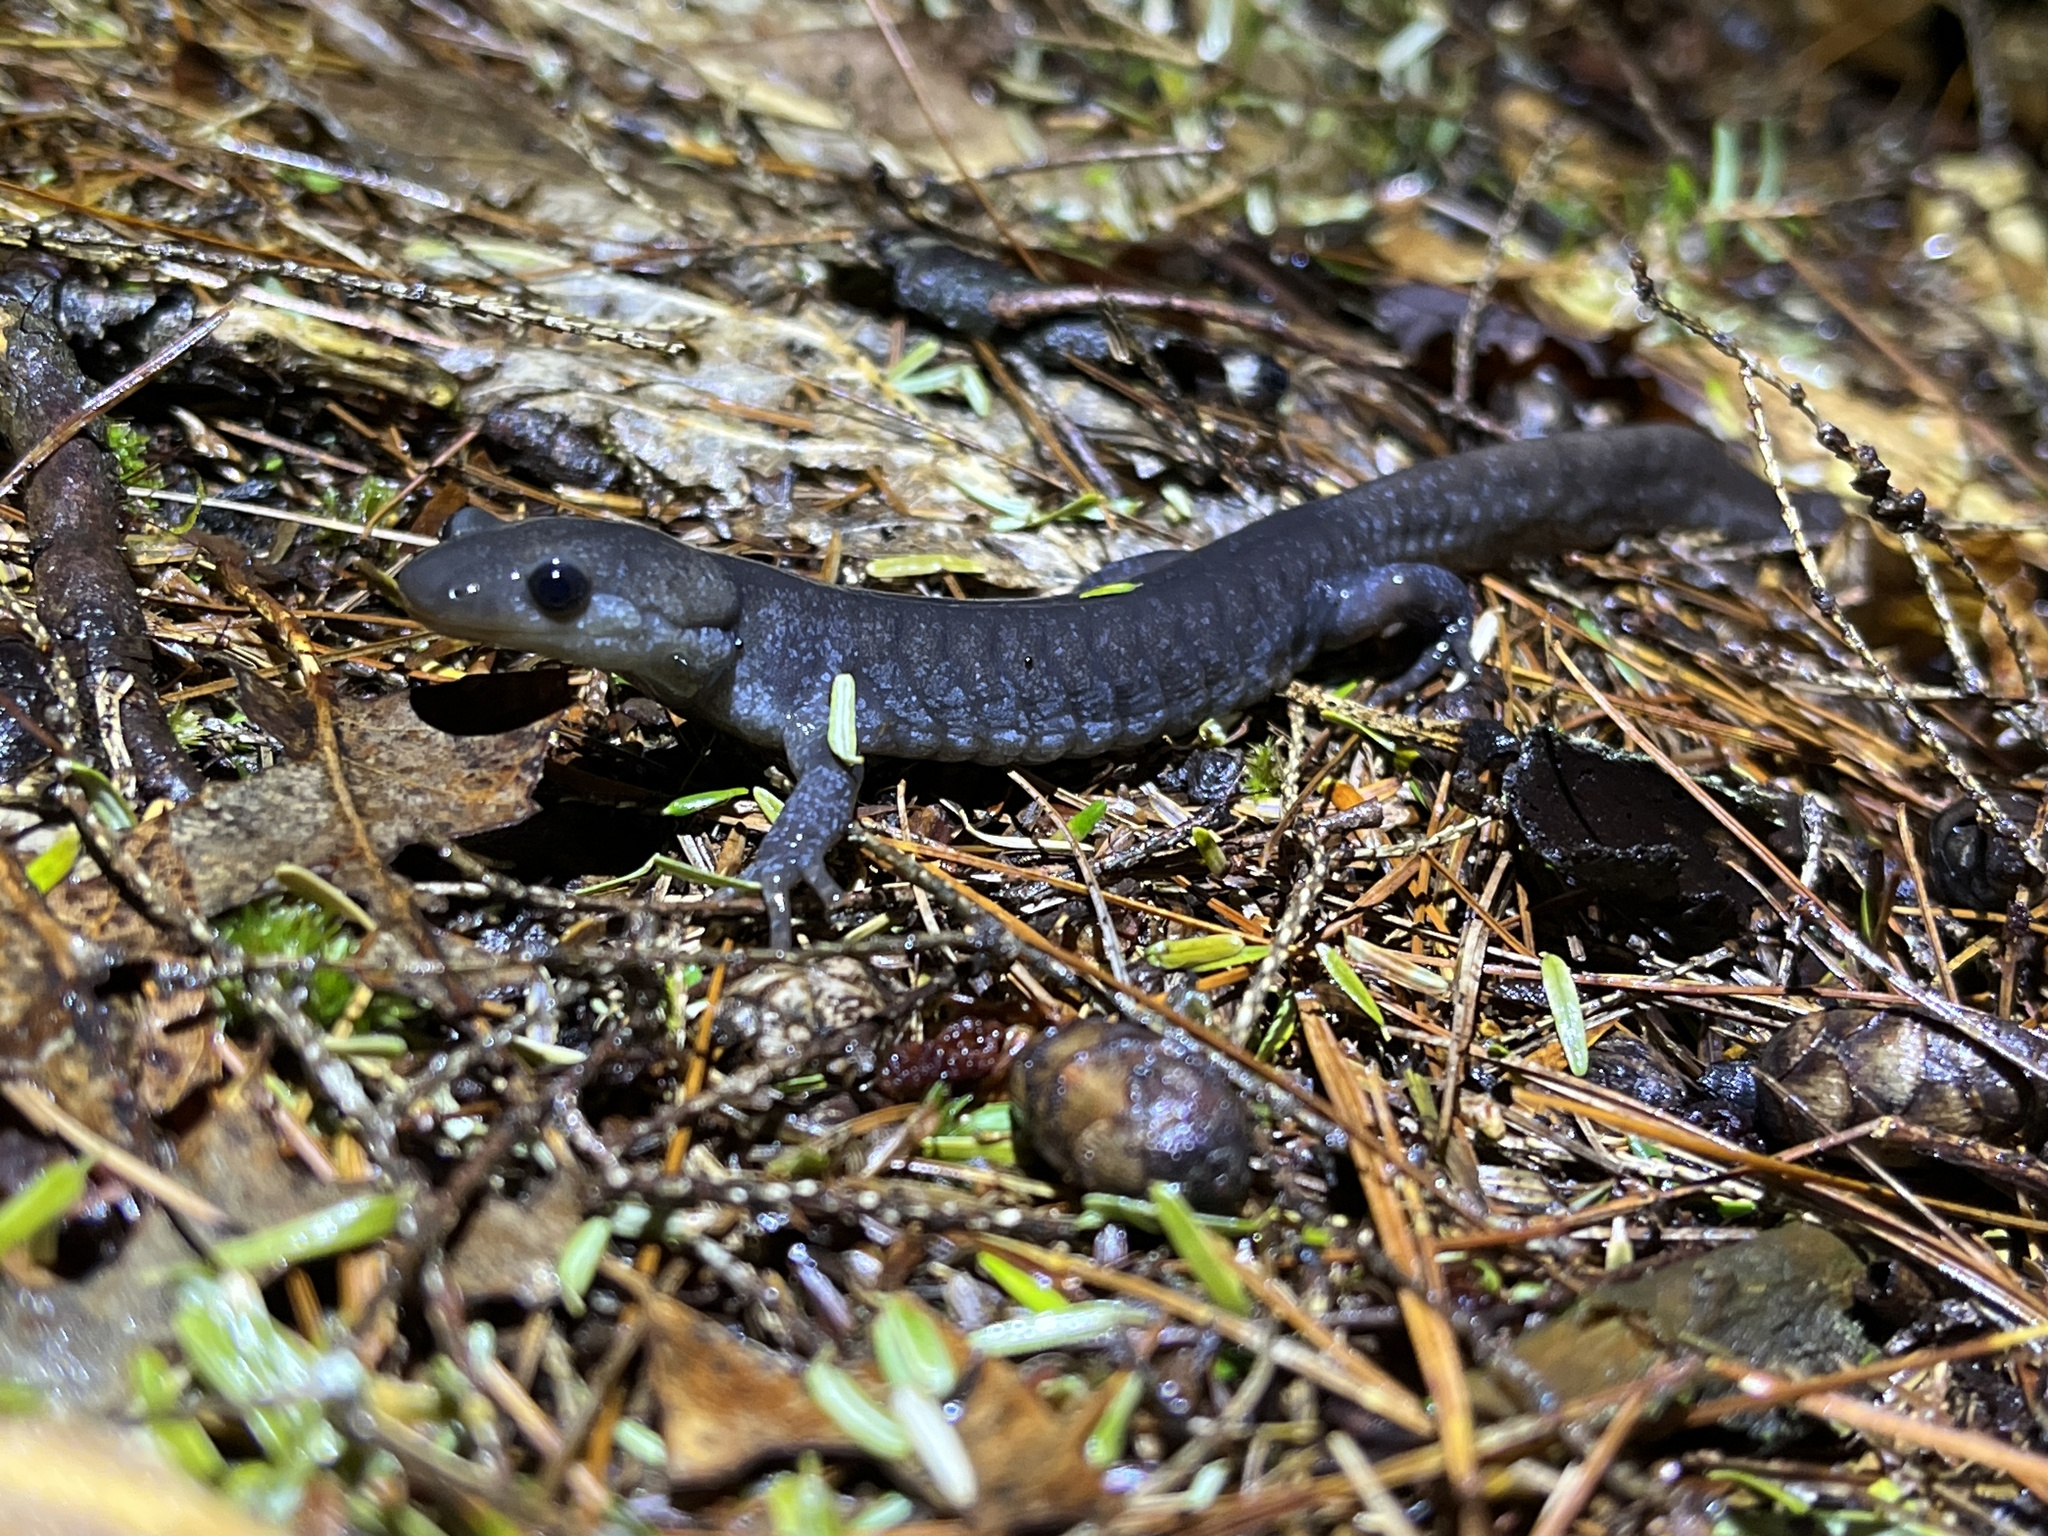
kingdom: Animalia
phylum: Chordata
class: Amphibia
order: Caudata
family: Ambystomatidae
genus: Ambystoma
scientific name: Ambystoma jeffersonianum
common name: Jefferson salamander
